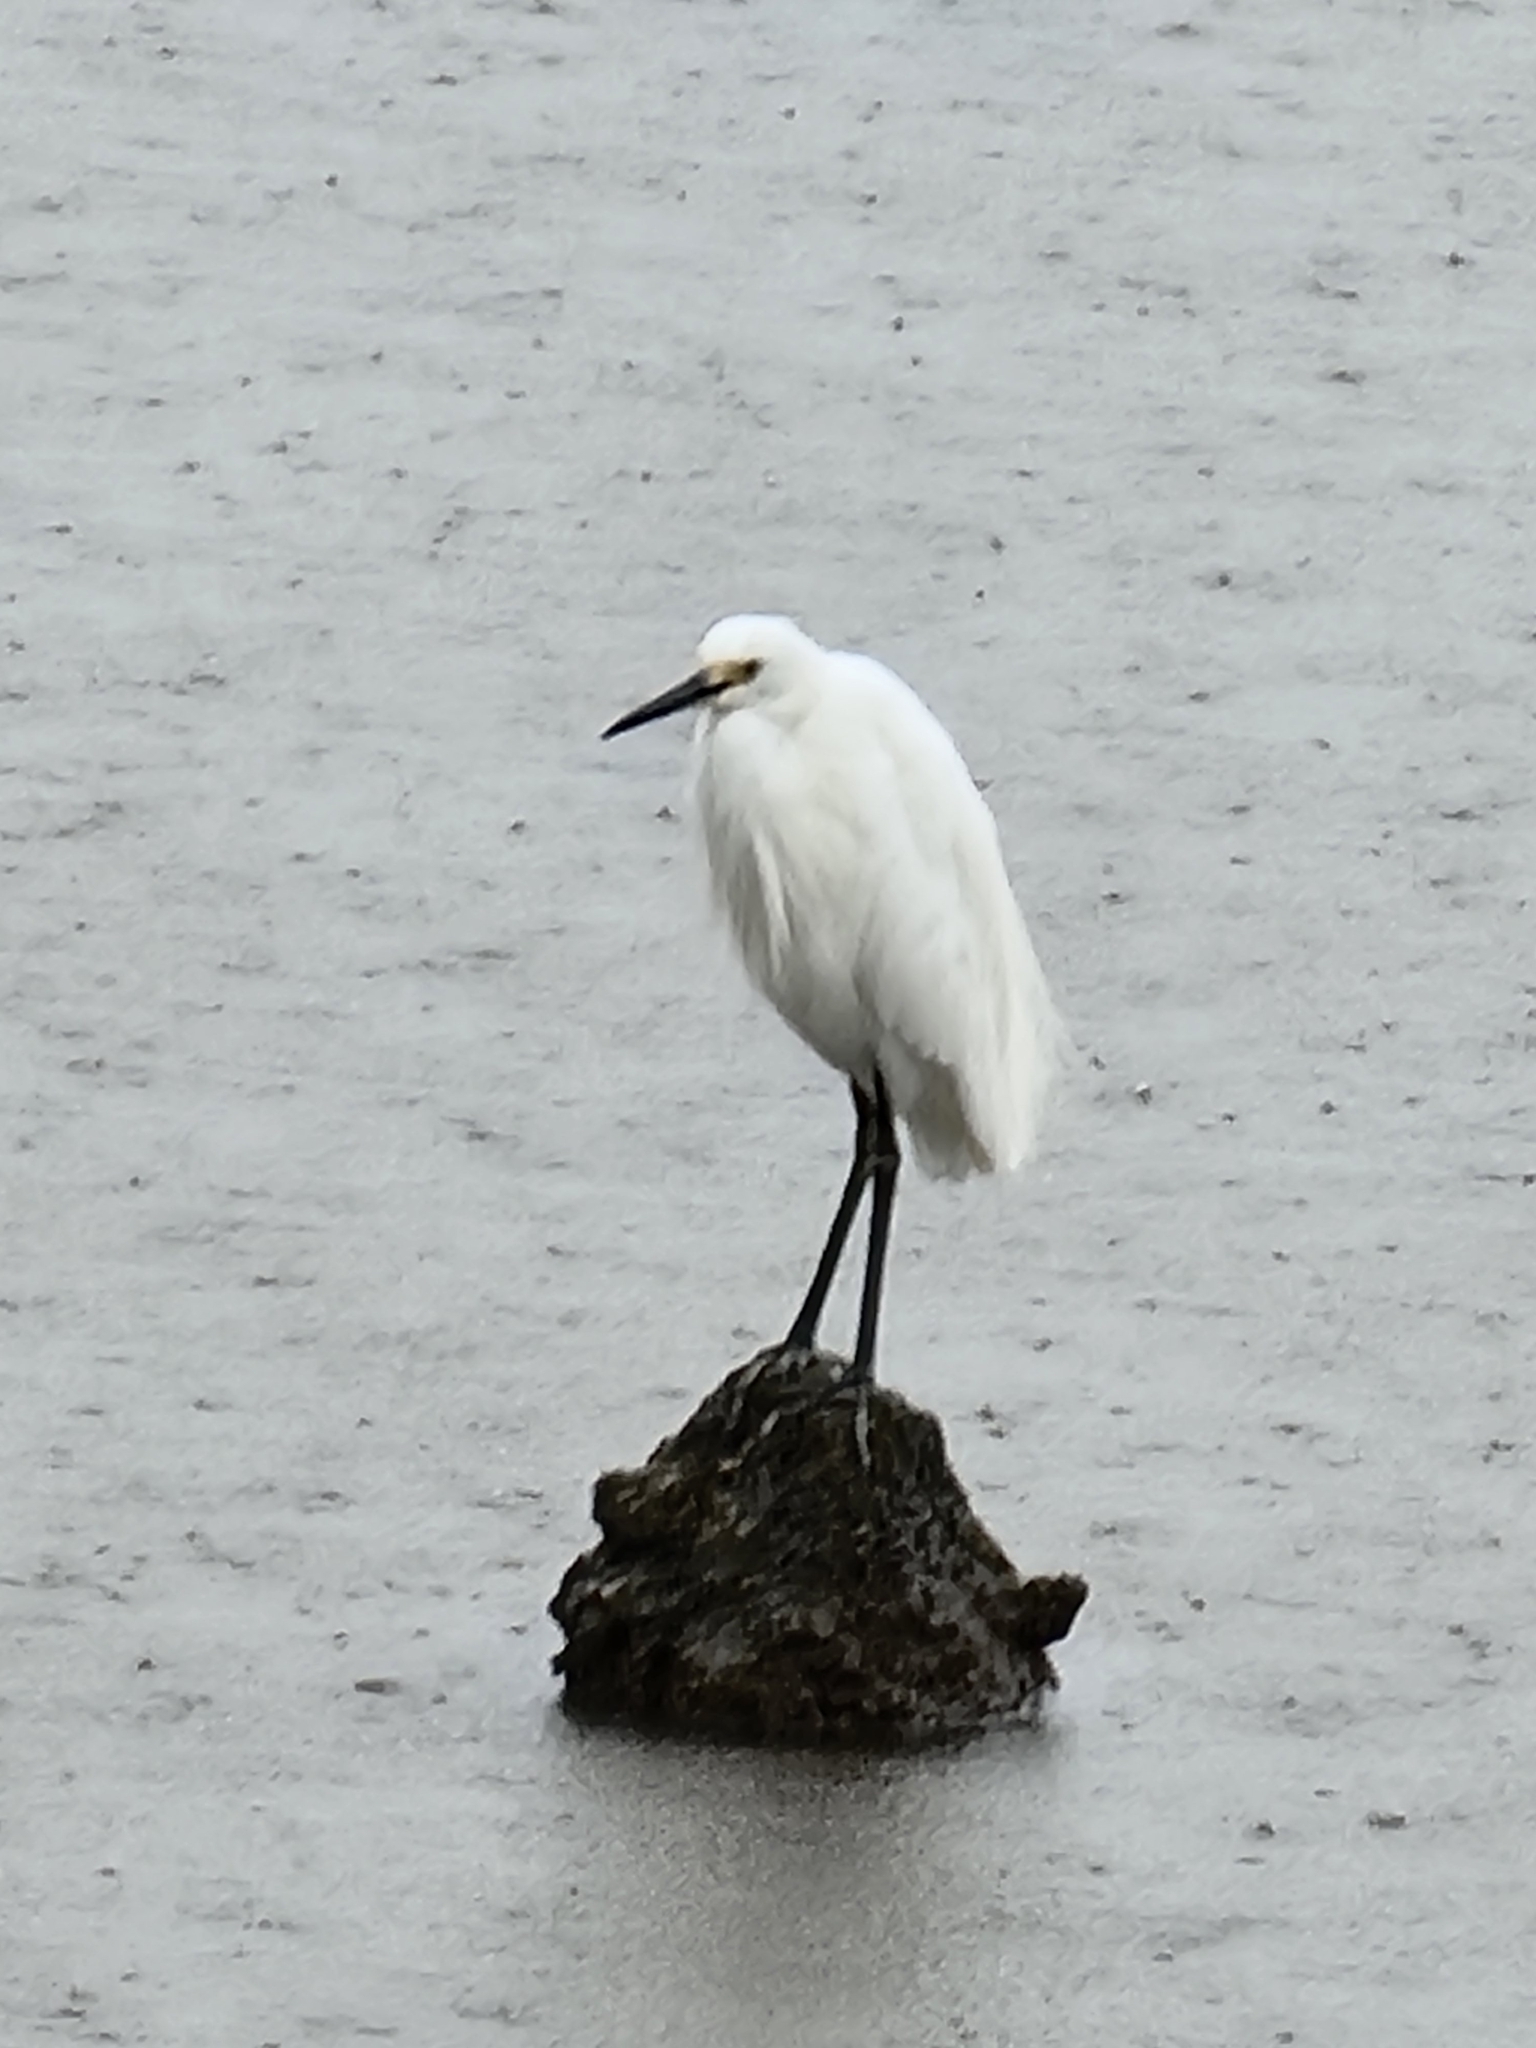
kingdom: Animalia
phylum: Chordata
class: Aves
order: Pelecaniformes
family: Ardeidae
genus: Egretta
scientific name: Egretta garzetta
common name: Little egret
